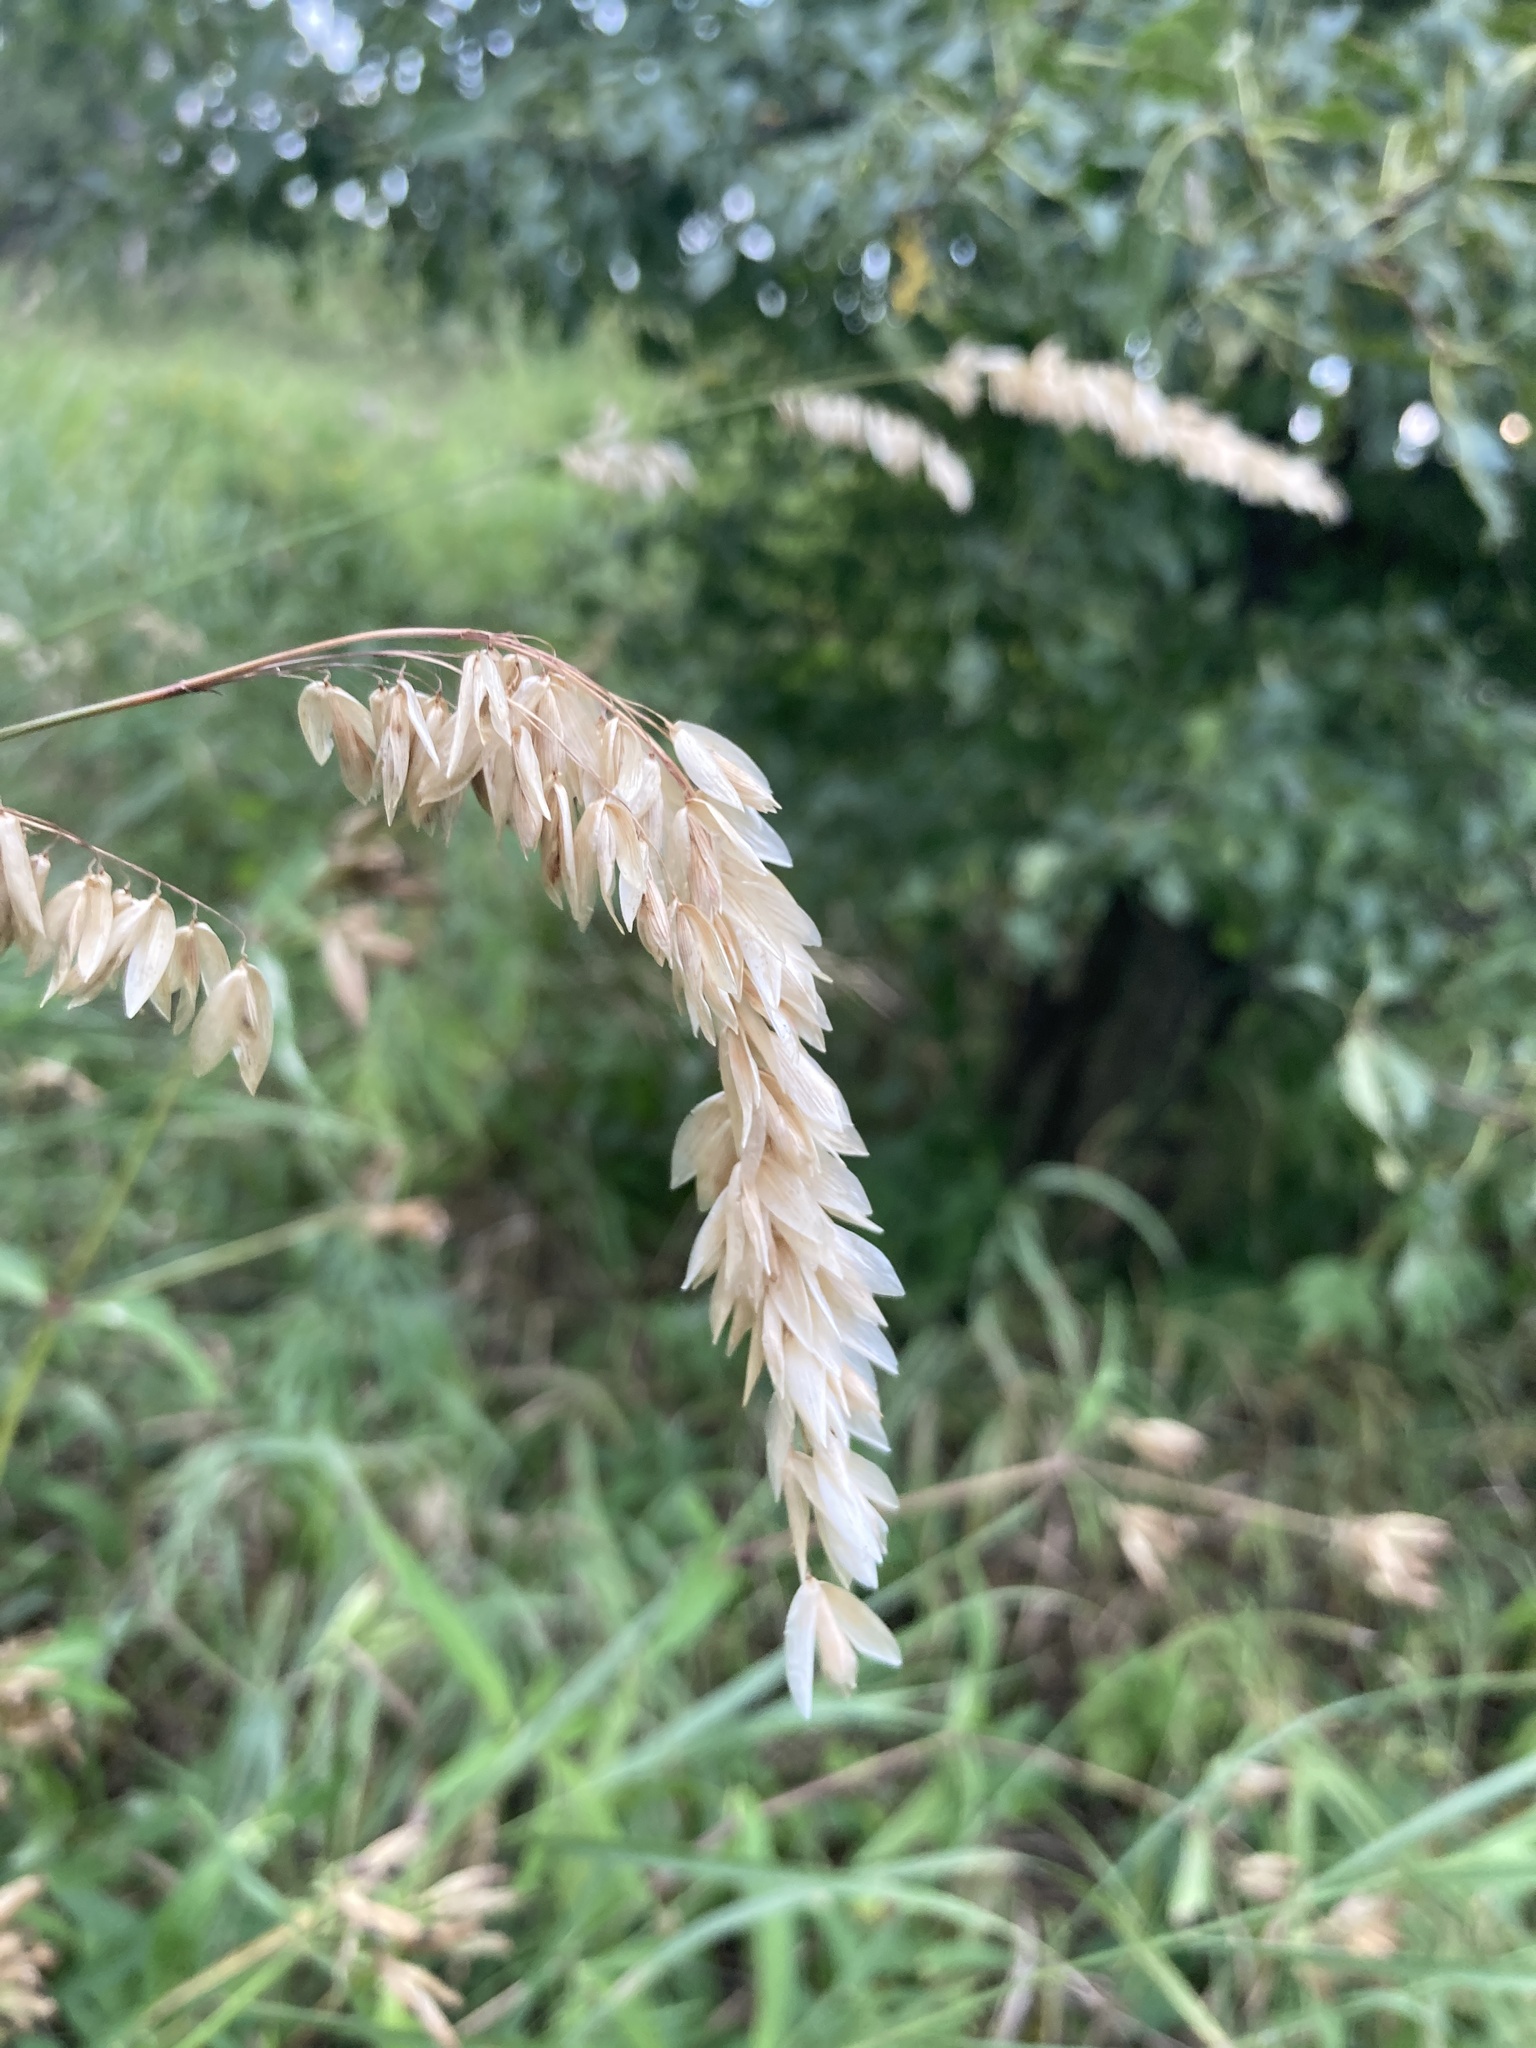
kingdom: Plantae
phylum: Tracheophyta
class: Liliopsida
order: Poales
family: Poaceae
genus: Melica
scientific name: Melica altissima
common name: Siberian melicgrass
